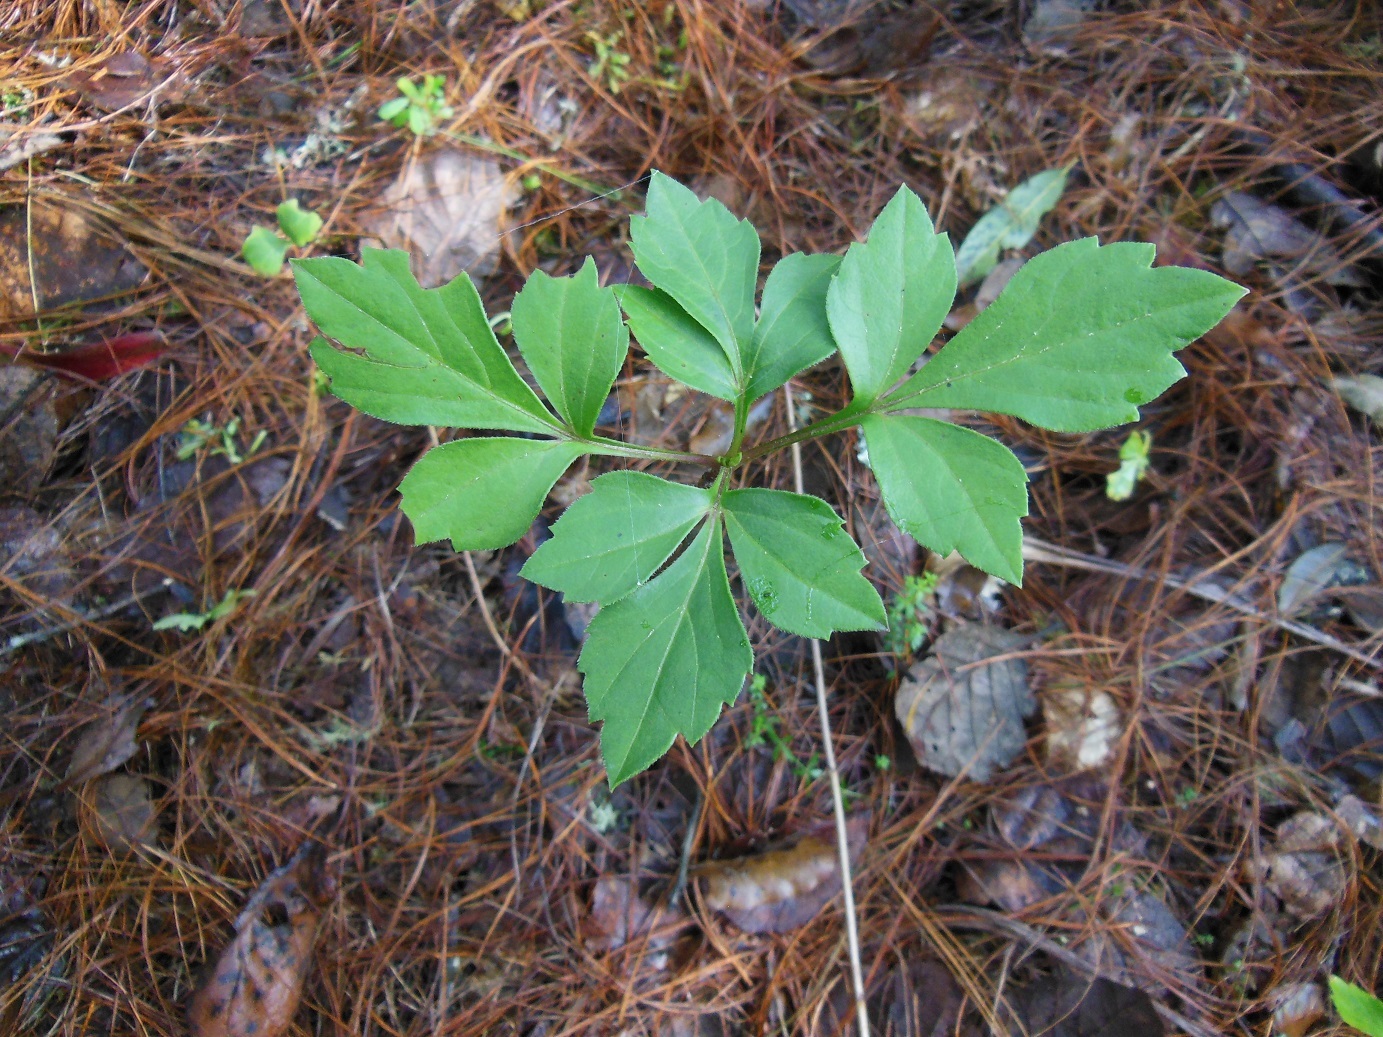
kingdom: Plantae
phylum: Tracheophyta
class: Magnoliopsida
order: Asterales
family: Asteraceae
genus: Bidens
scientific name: Bidens ostruthioides
